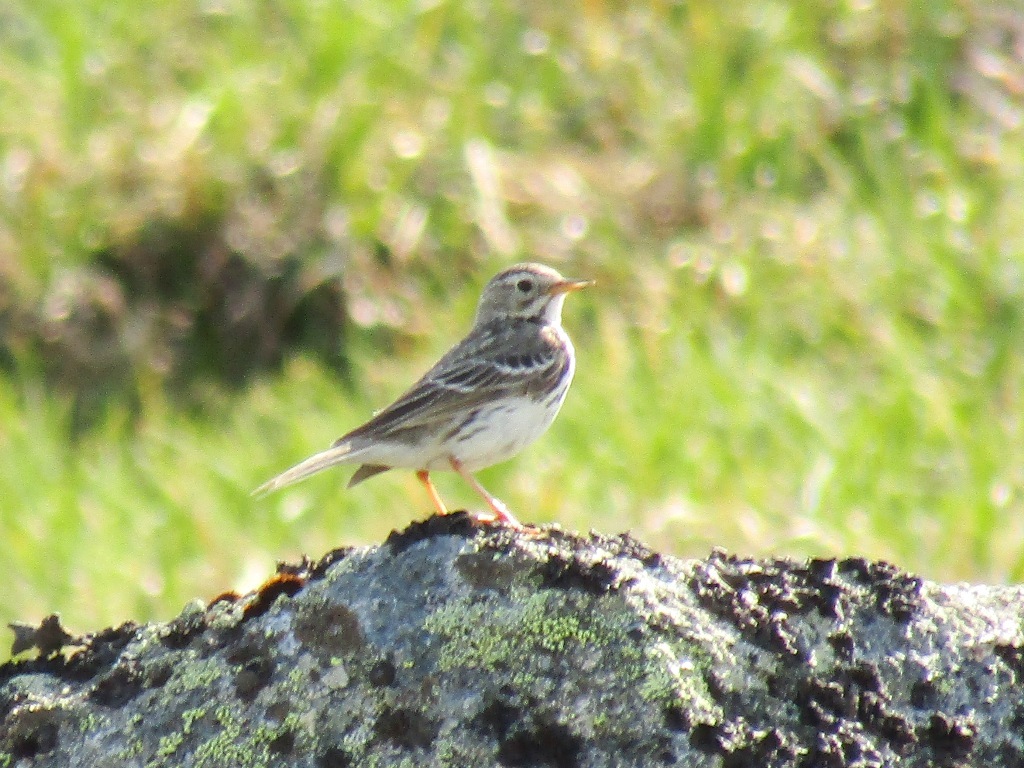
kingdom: Animalia
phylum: Chordata
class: Aves
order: Passeriformes
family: Motacillidae
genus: Anthus
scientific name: Anthus cervinus
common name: Red-throated pipit
